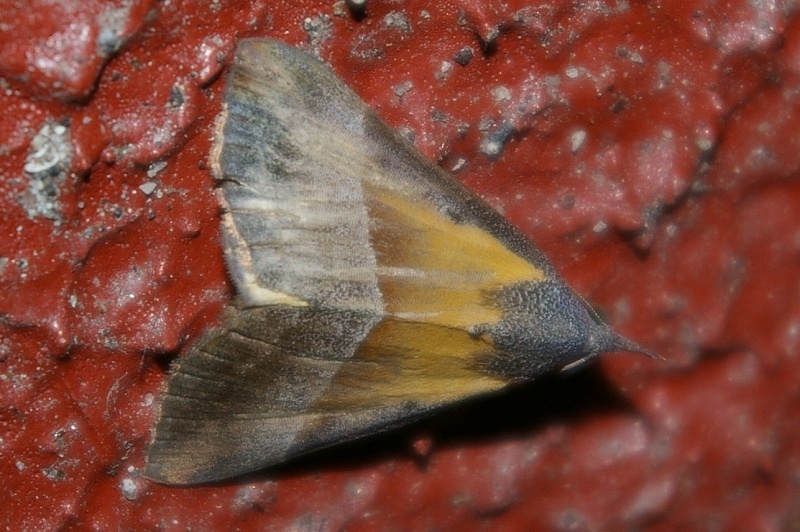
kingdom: Animalia
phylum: Arthropoda
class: Insecta
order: Lepidoptera
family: Erebidae
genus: Hypena
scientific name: Hypena claripennis
